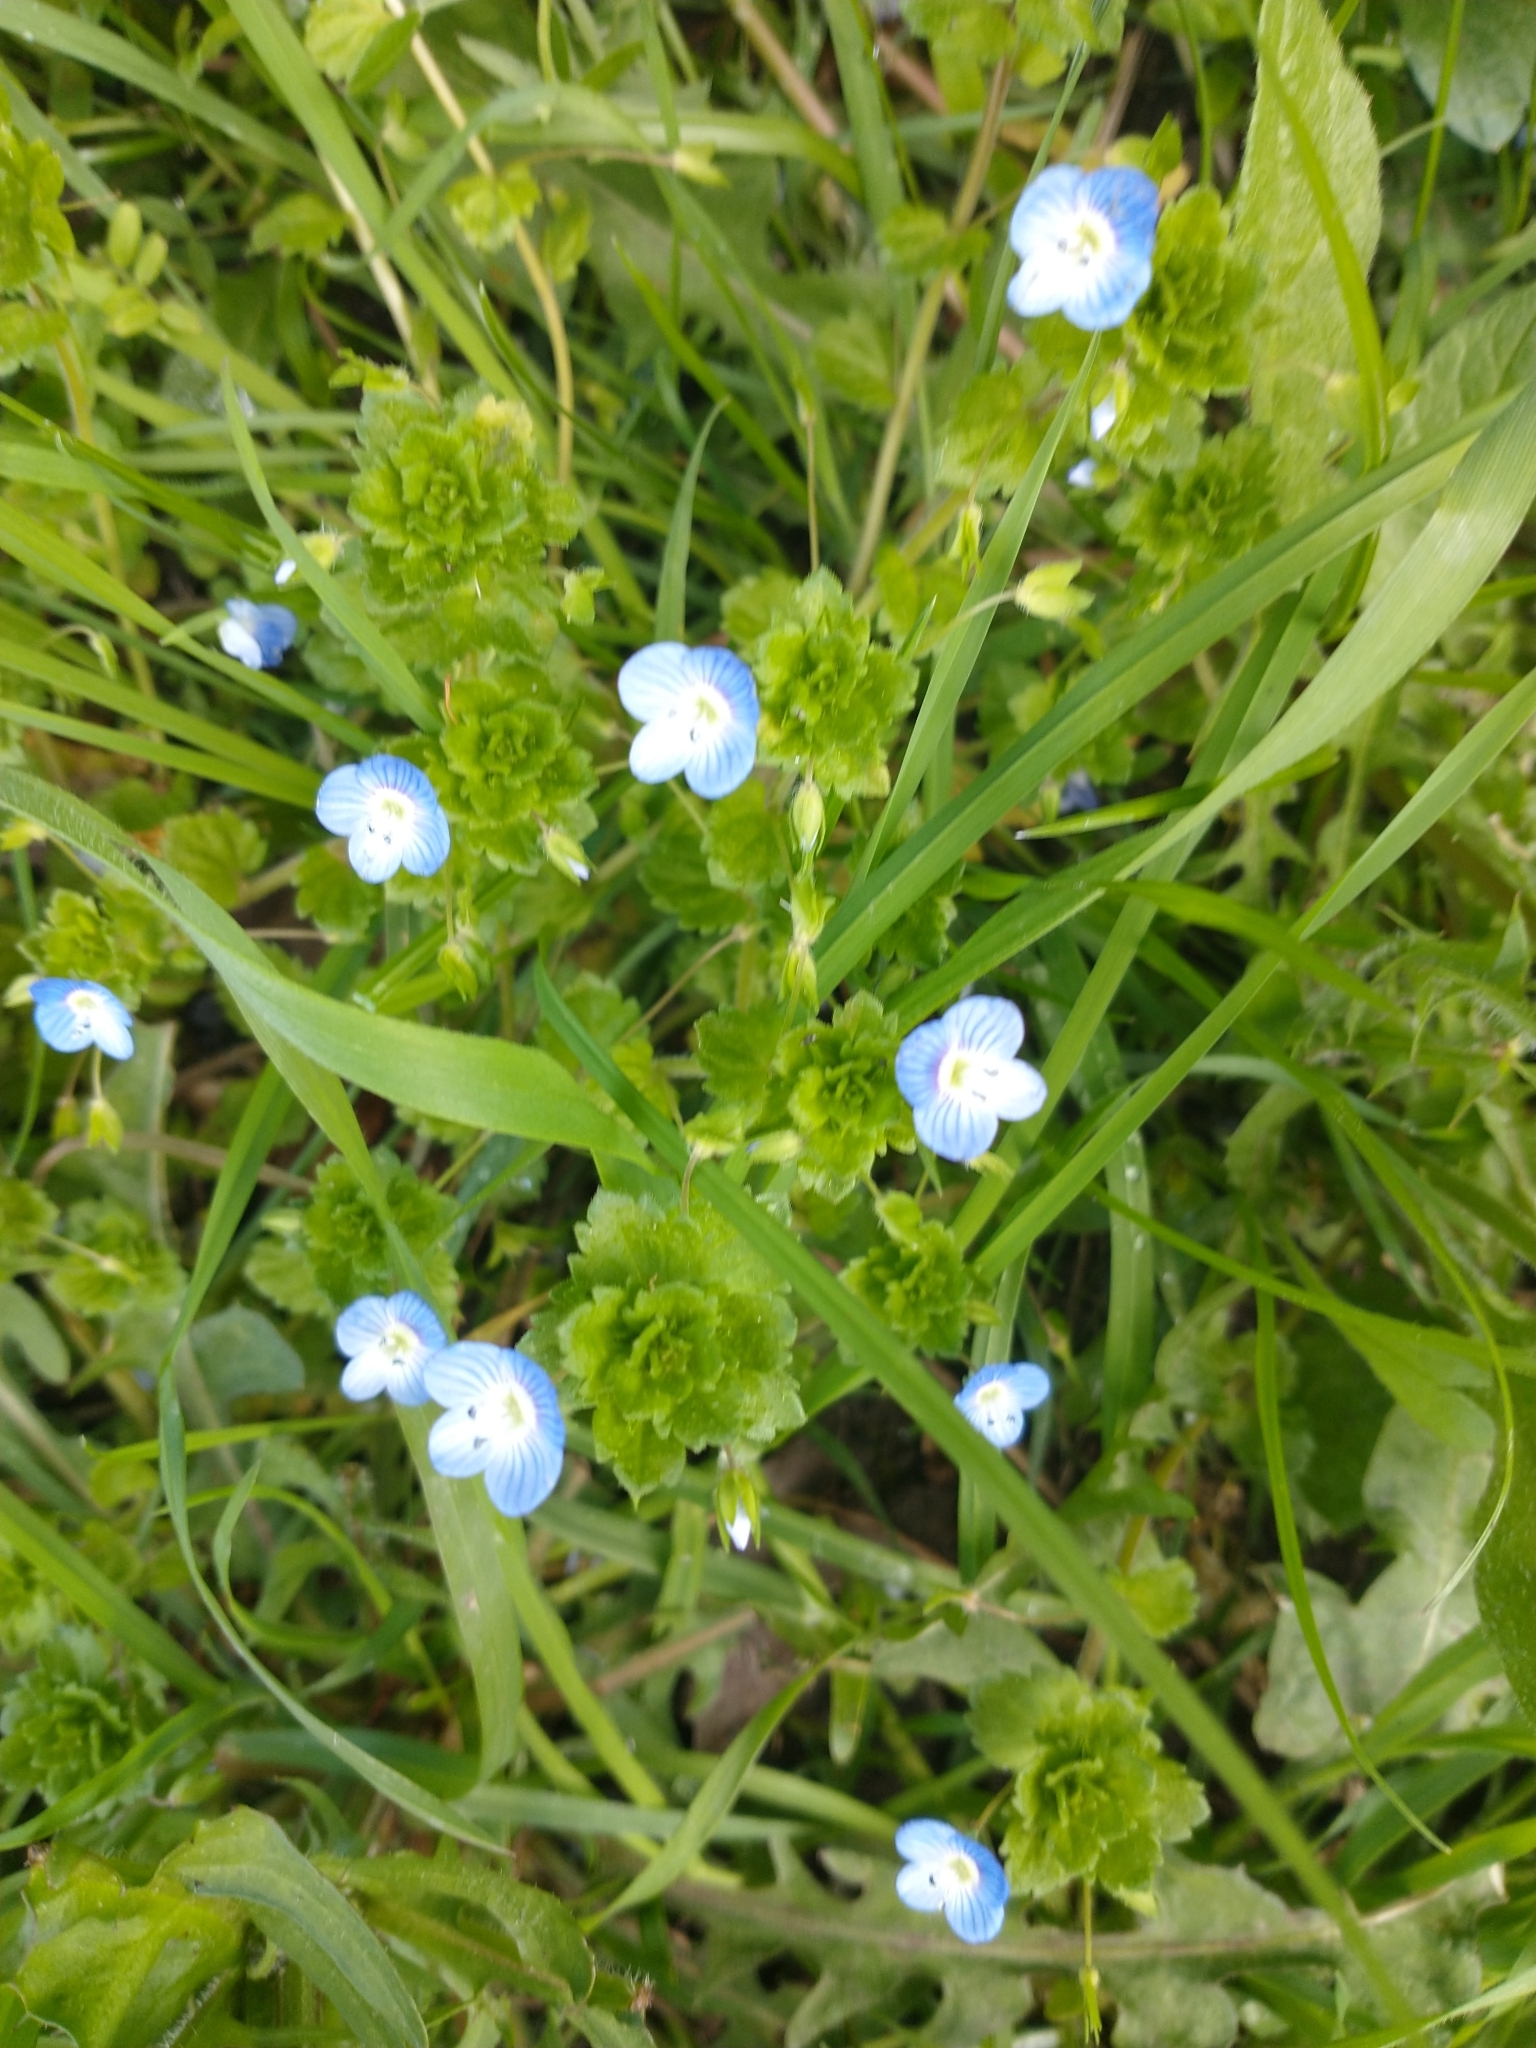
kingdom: Plantae
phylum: Tracheophyta
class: Magnoliopsida
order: Lamiales
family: Plantaginaceae
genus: Veronica
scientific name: Veronica persica
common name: Common field-speedwell
